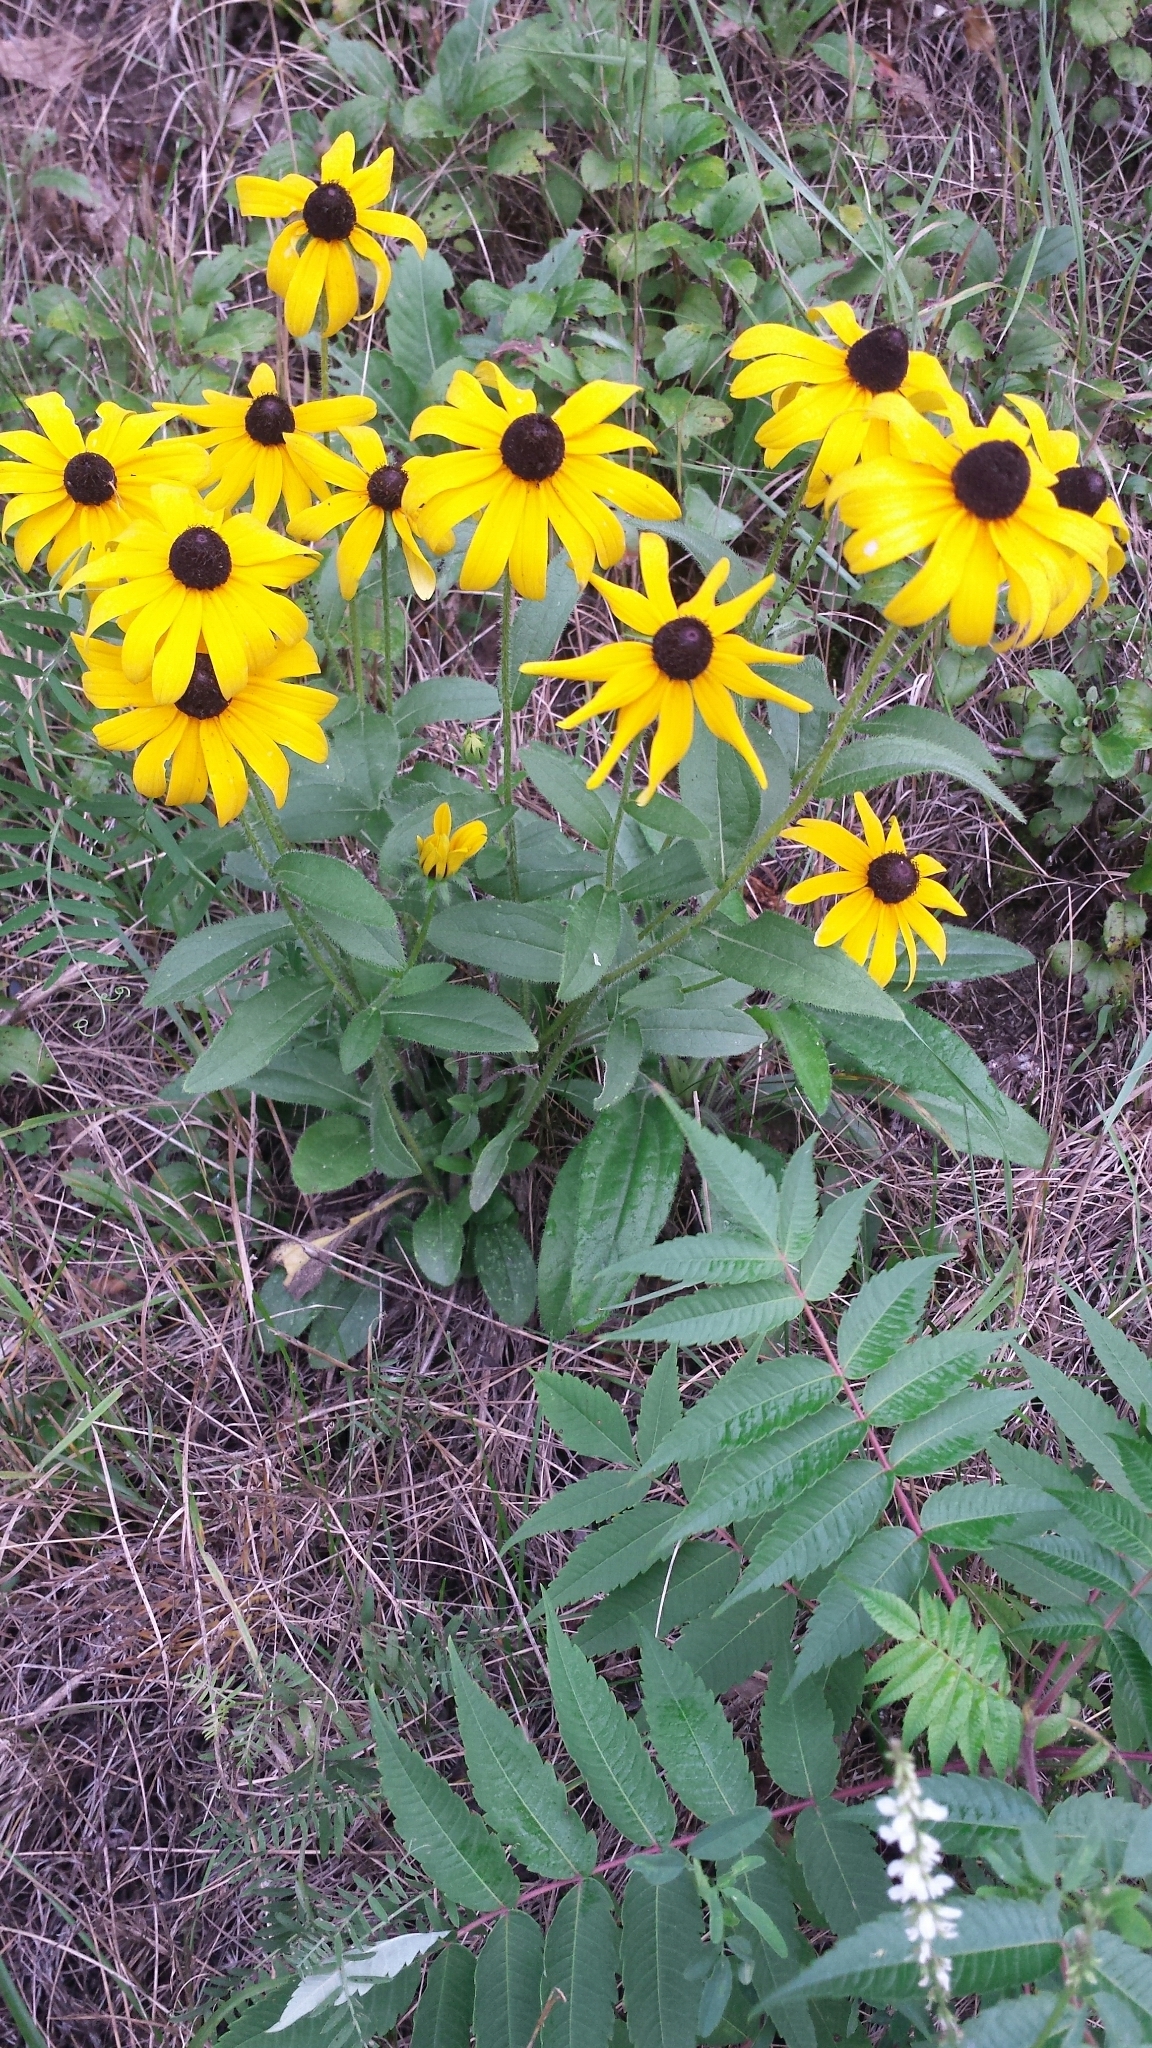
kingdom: Plantae
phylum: Tracheophyta
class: Magnoliopsida
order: Asterales
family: Asteraceae
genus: Rudbeckia
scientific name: Rudbeckia hirta
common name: Black-eyed-susan
